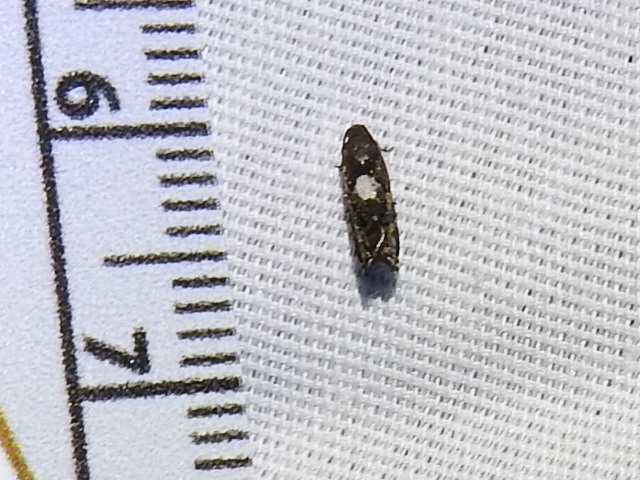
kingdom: Animalia
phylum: Arthropoda
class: Insecta
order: Lepidoptera
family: Tortricidae
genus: Cydia
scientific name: Cydia albimaculana
